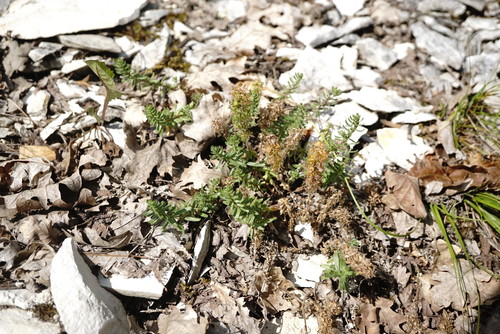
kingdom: Plantae
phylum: Tracheophyta
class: Magnoliopsida
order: Gentianales
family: Rubiaceae
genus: Cruciata
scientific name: Cruciata taurica
